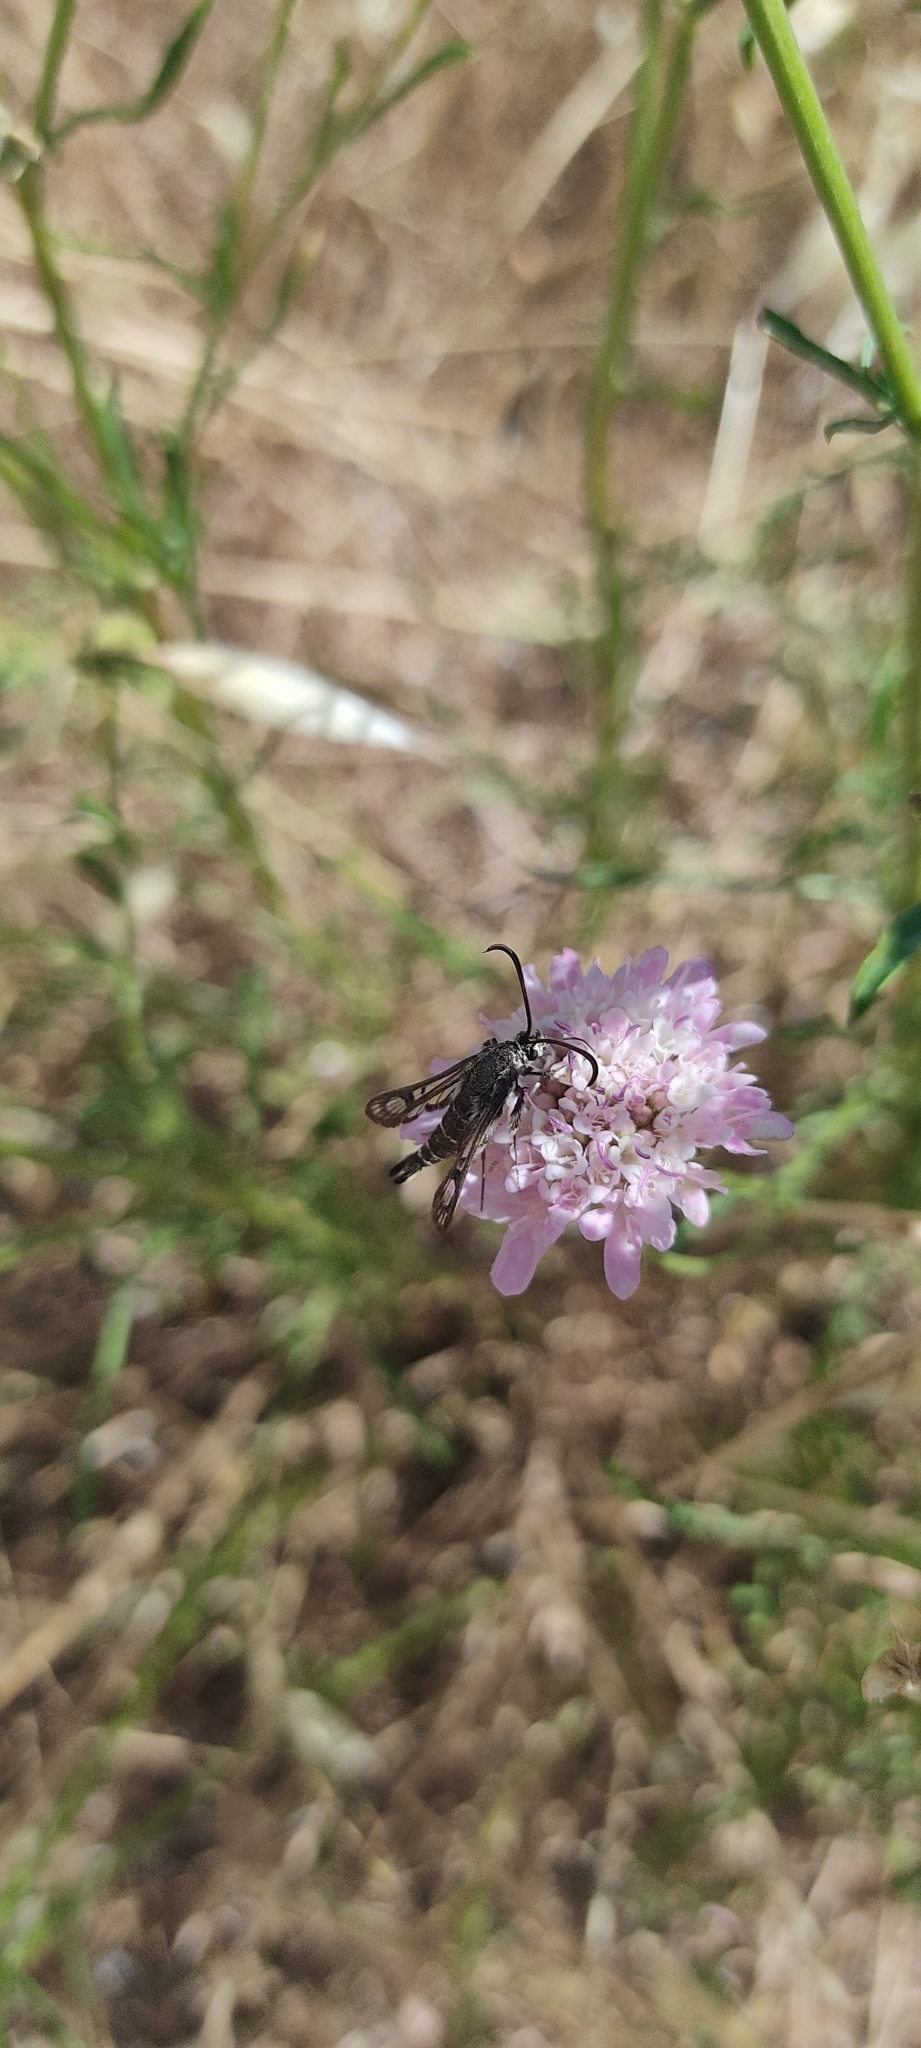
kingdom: Animalia
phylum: Arthropoda
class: Insecta
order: Lepidoptera
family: Sesiidae
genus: Chamaesphecia
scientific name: Chamaesphecia bibioniformis
